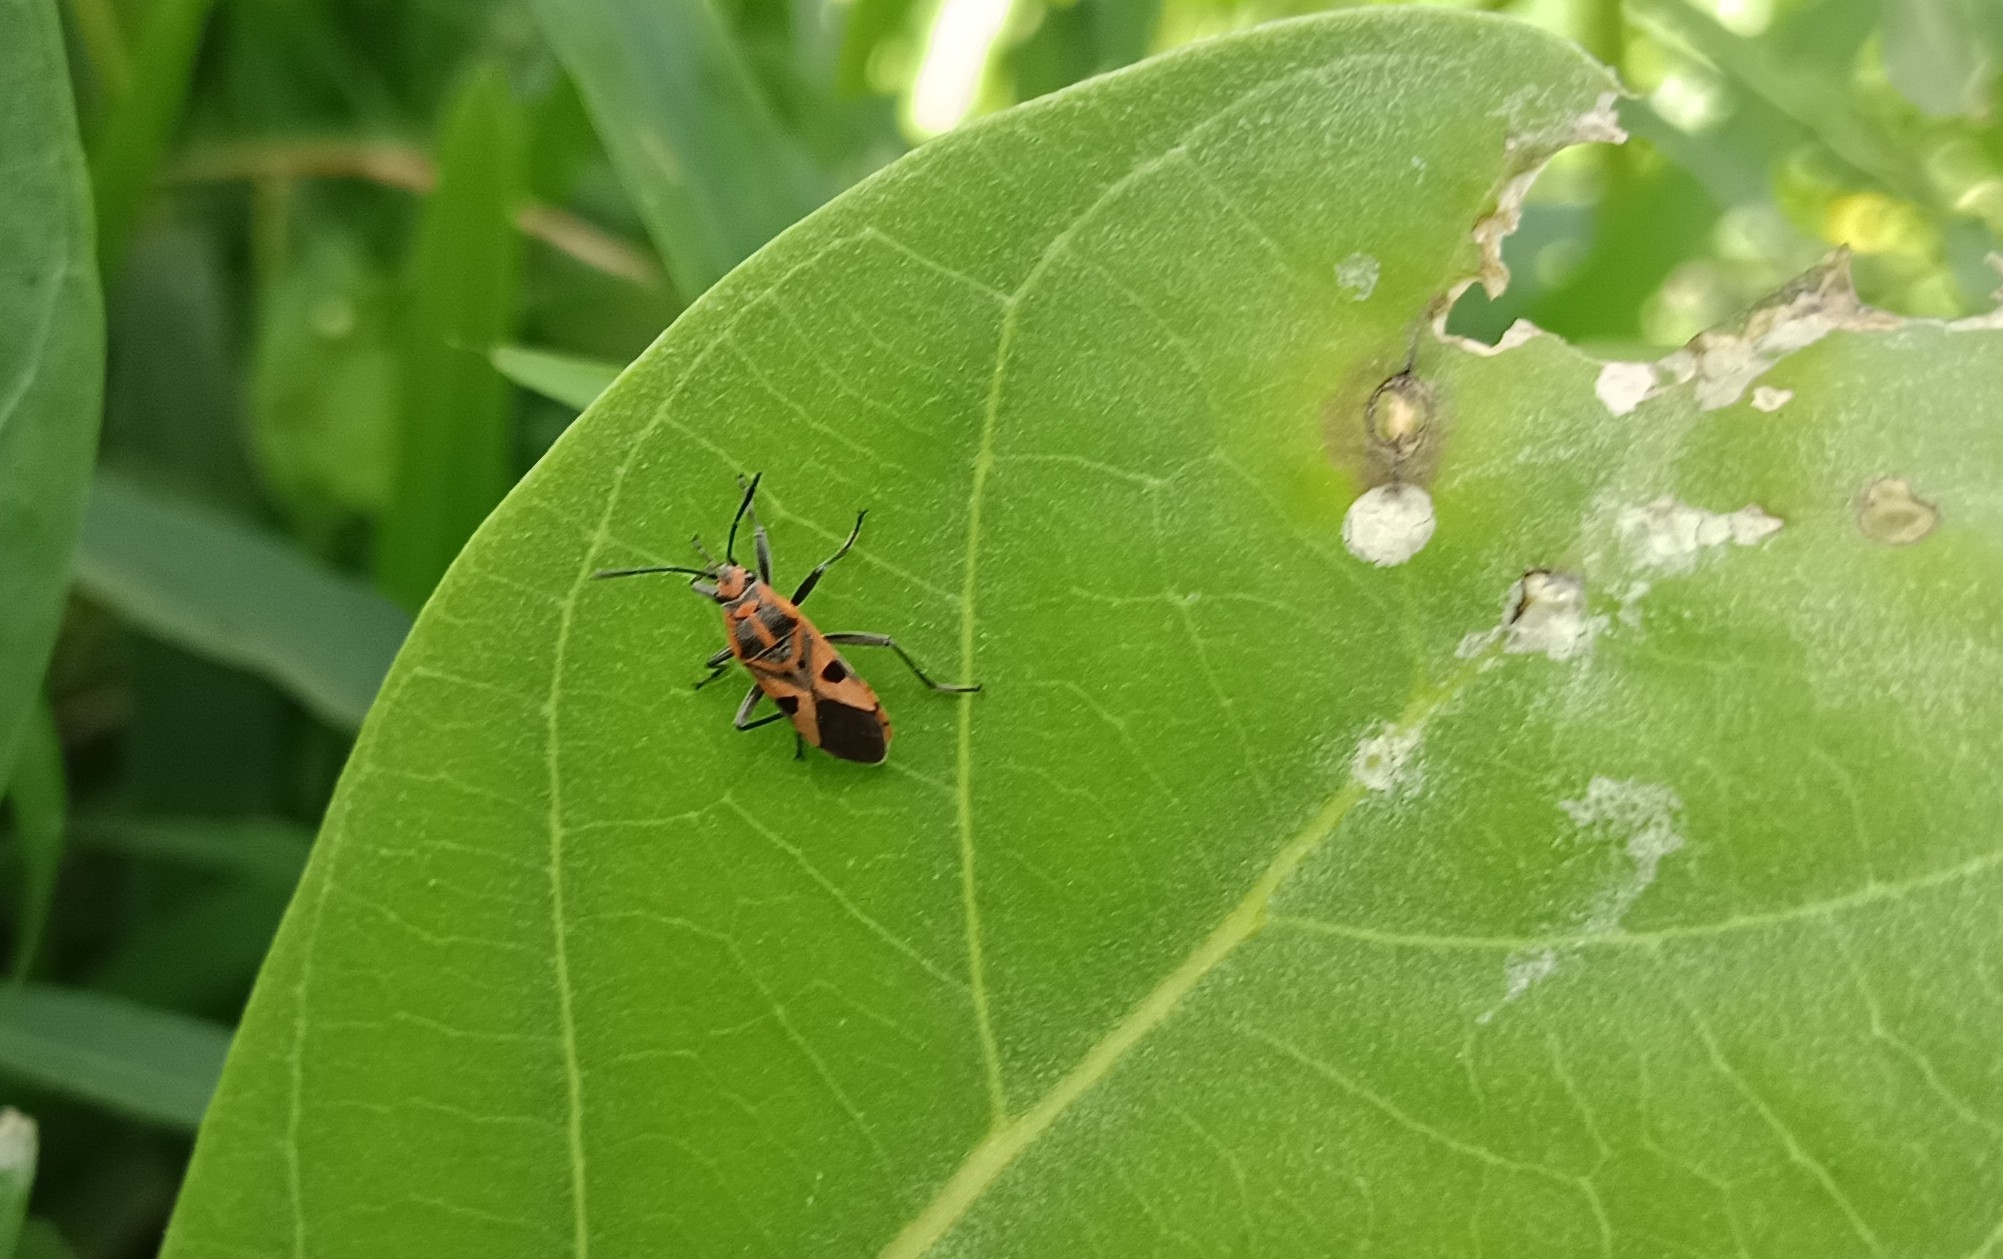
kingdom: Animalia
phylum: Arthropoda
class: Insecta
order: Hemiptera
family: Lygaeidae
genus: Spilostethus
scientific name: Spilostethus hospes
